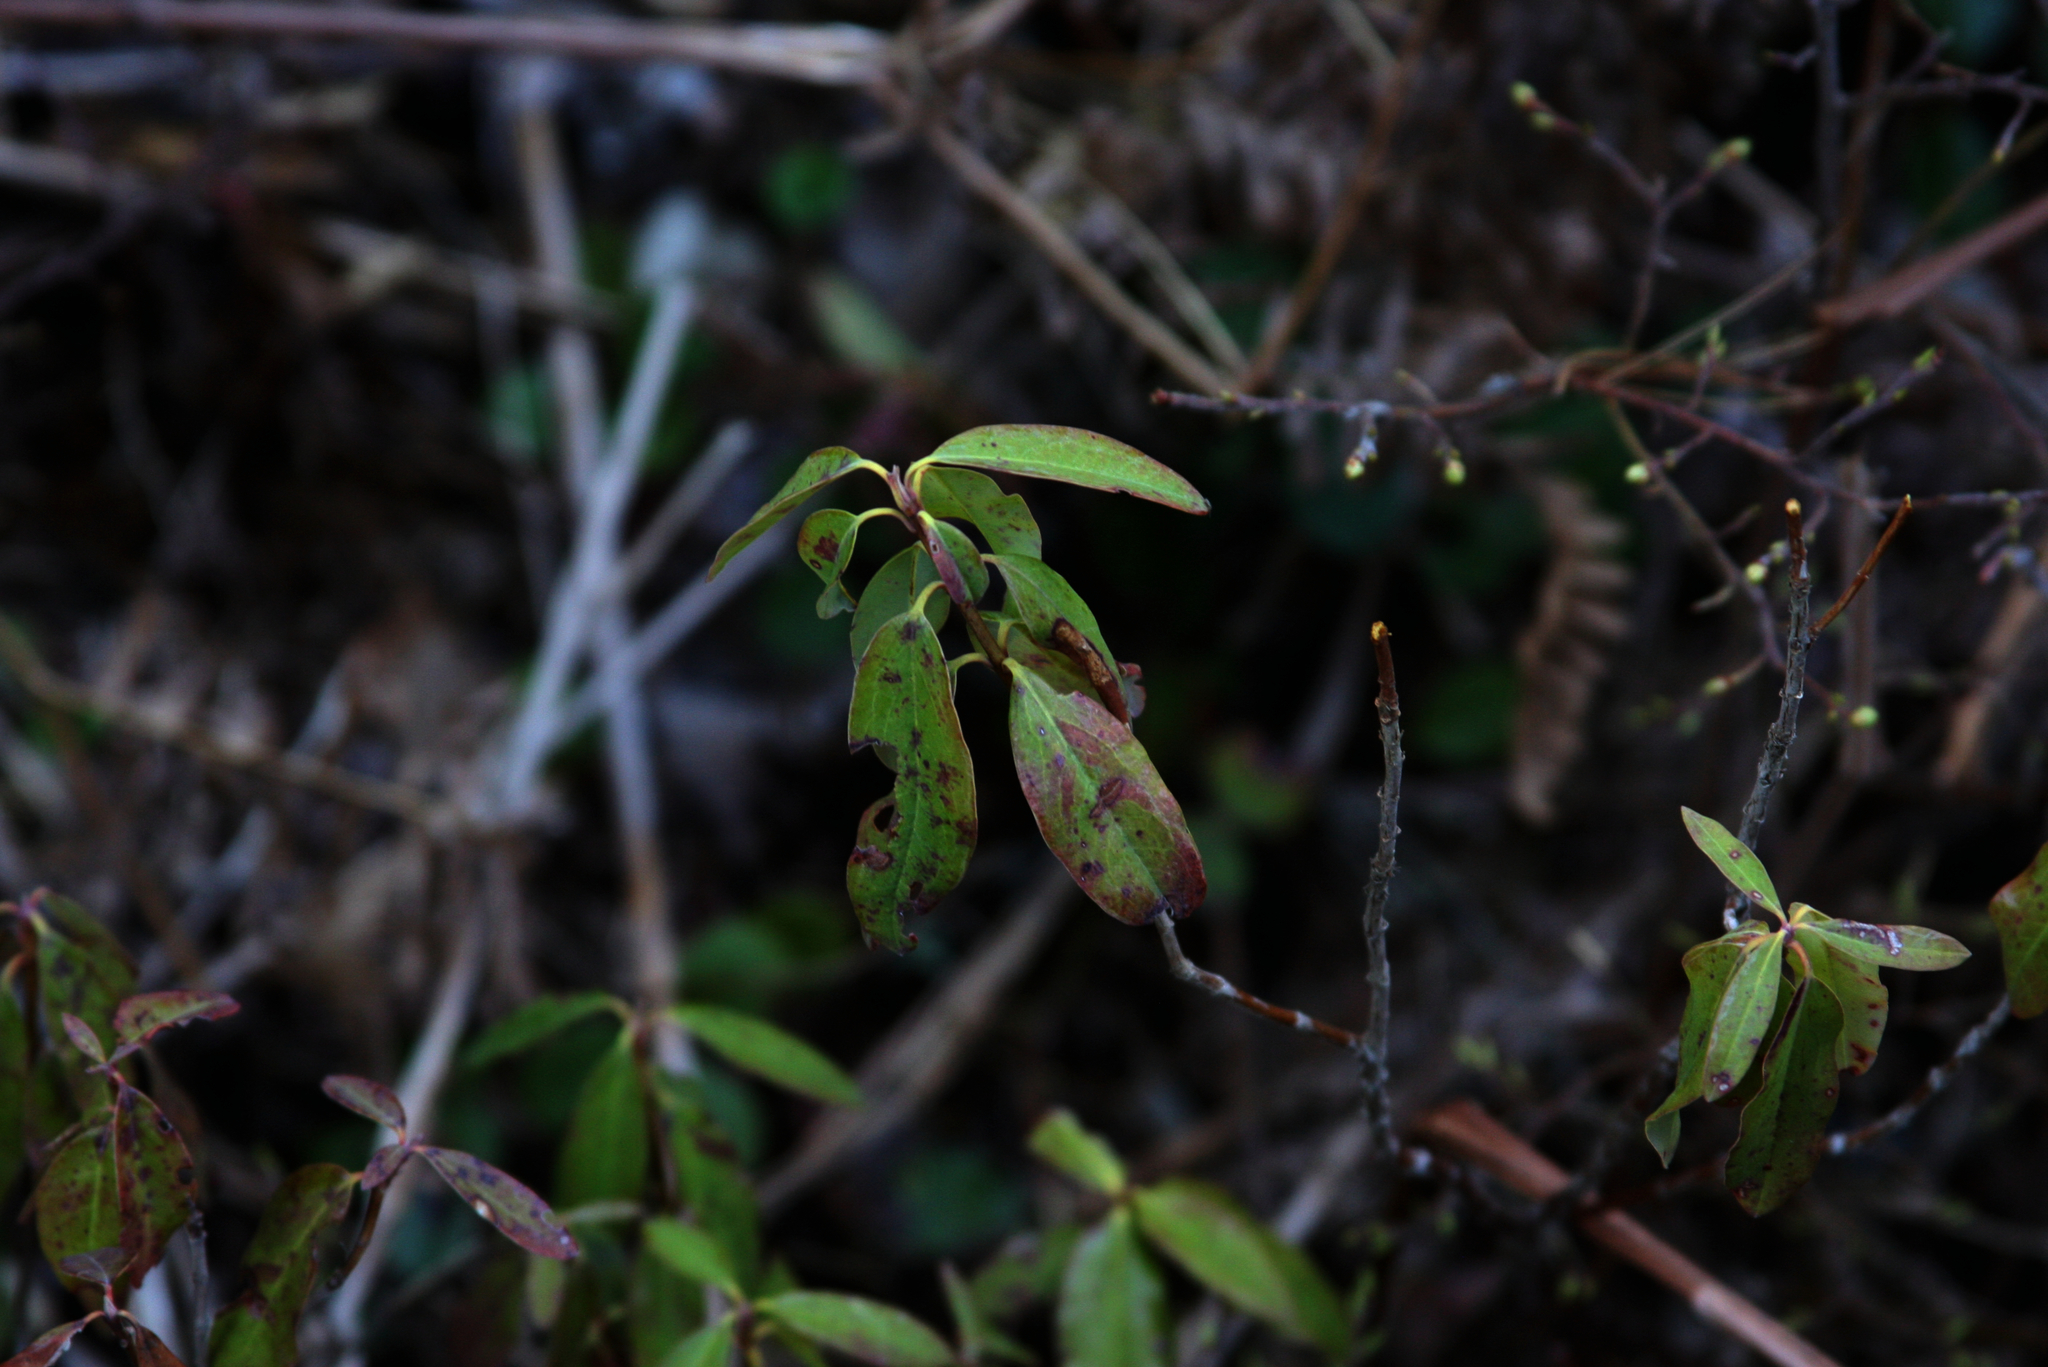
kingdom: Plantae
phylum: Tracheophyta
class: Magnoliopsida
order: Ericales
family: Ericaceae
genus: Kalmia
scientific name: Kalmia angustifolia
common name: Sheep-laurel
